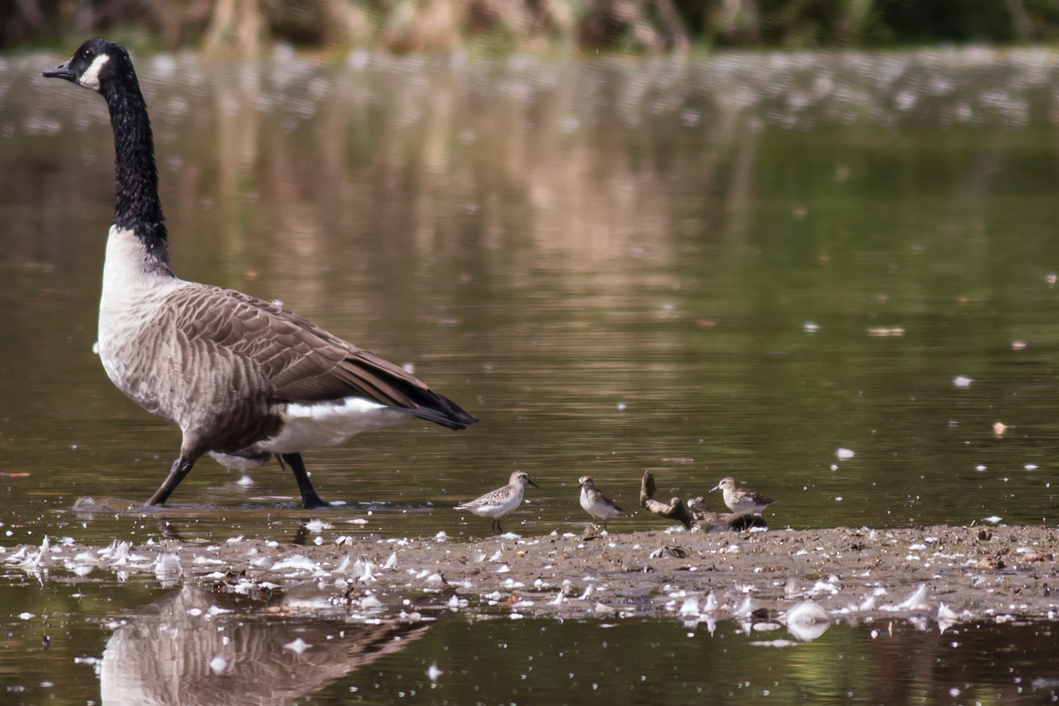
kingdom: Animalia
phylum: Chordata
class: Aves
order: Charadriiformes
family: Scolopacidae
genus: Calidris
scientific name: Calidris pusilla
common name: Semipalmated sandpiper
